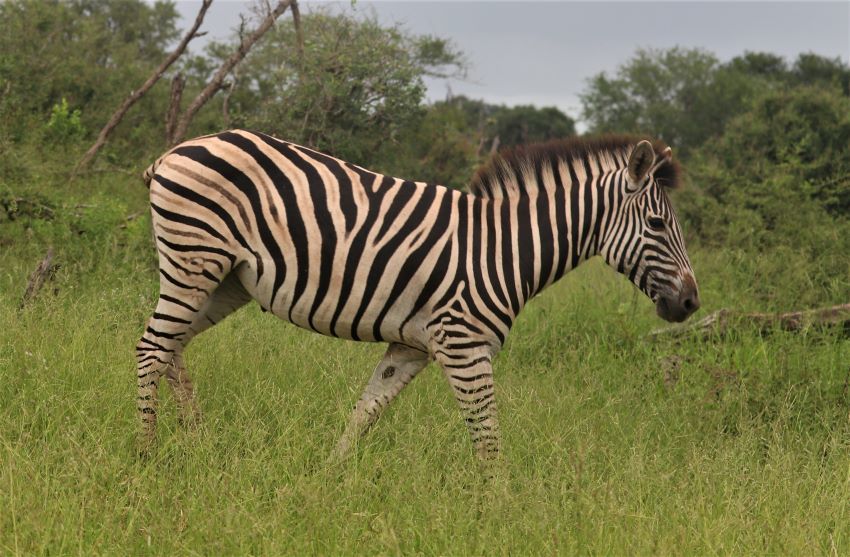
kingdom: Animalia
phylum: Chordata
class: Mammalia
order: Perissodactyla
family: Equidae
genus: Equus
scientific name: Equus quagga
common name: Plains zebra
